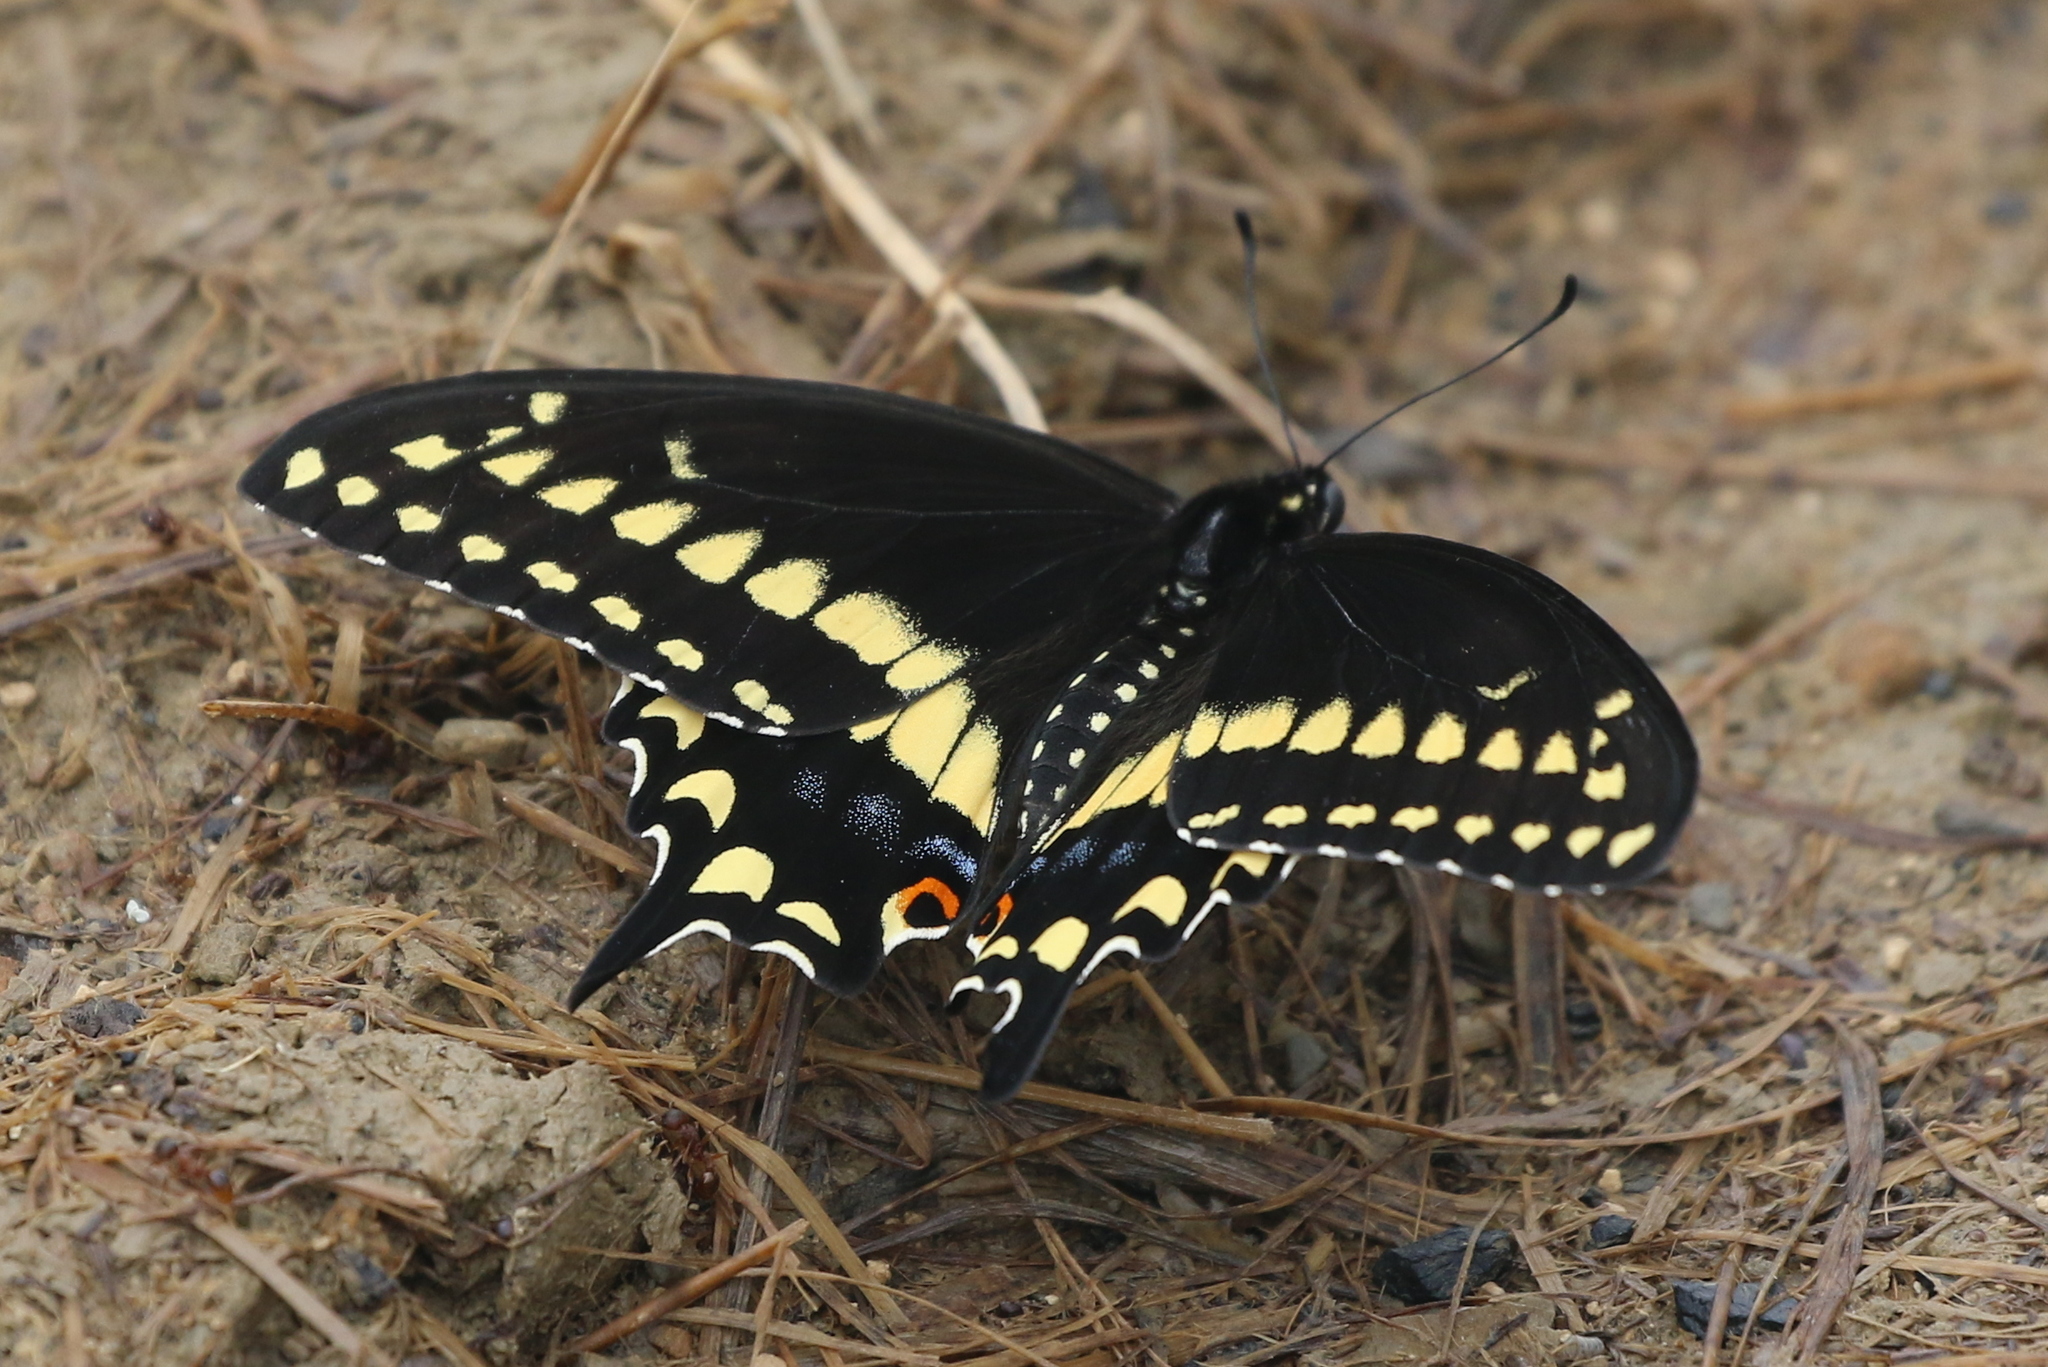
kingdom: Animalia
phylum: Arthropoda
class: Insecta
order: Lepidoptera
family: Papilionidae
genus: Papilio
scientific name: Papilio polyxenes
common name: Black swallowtail
